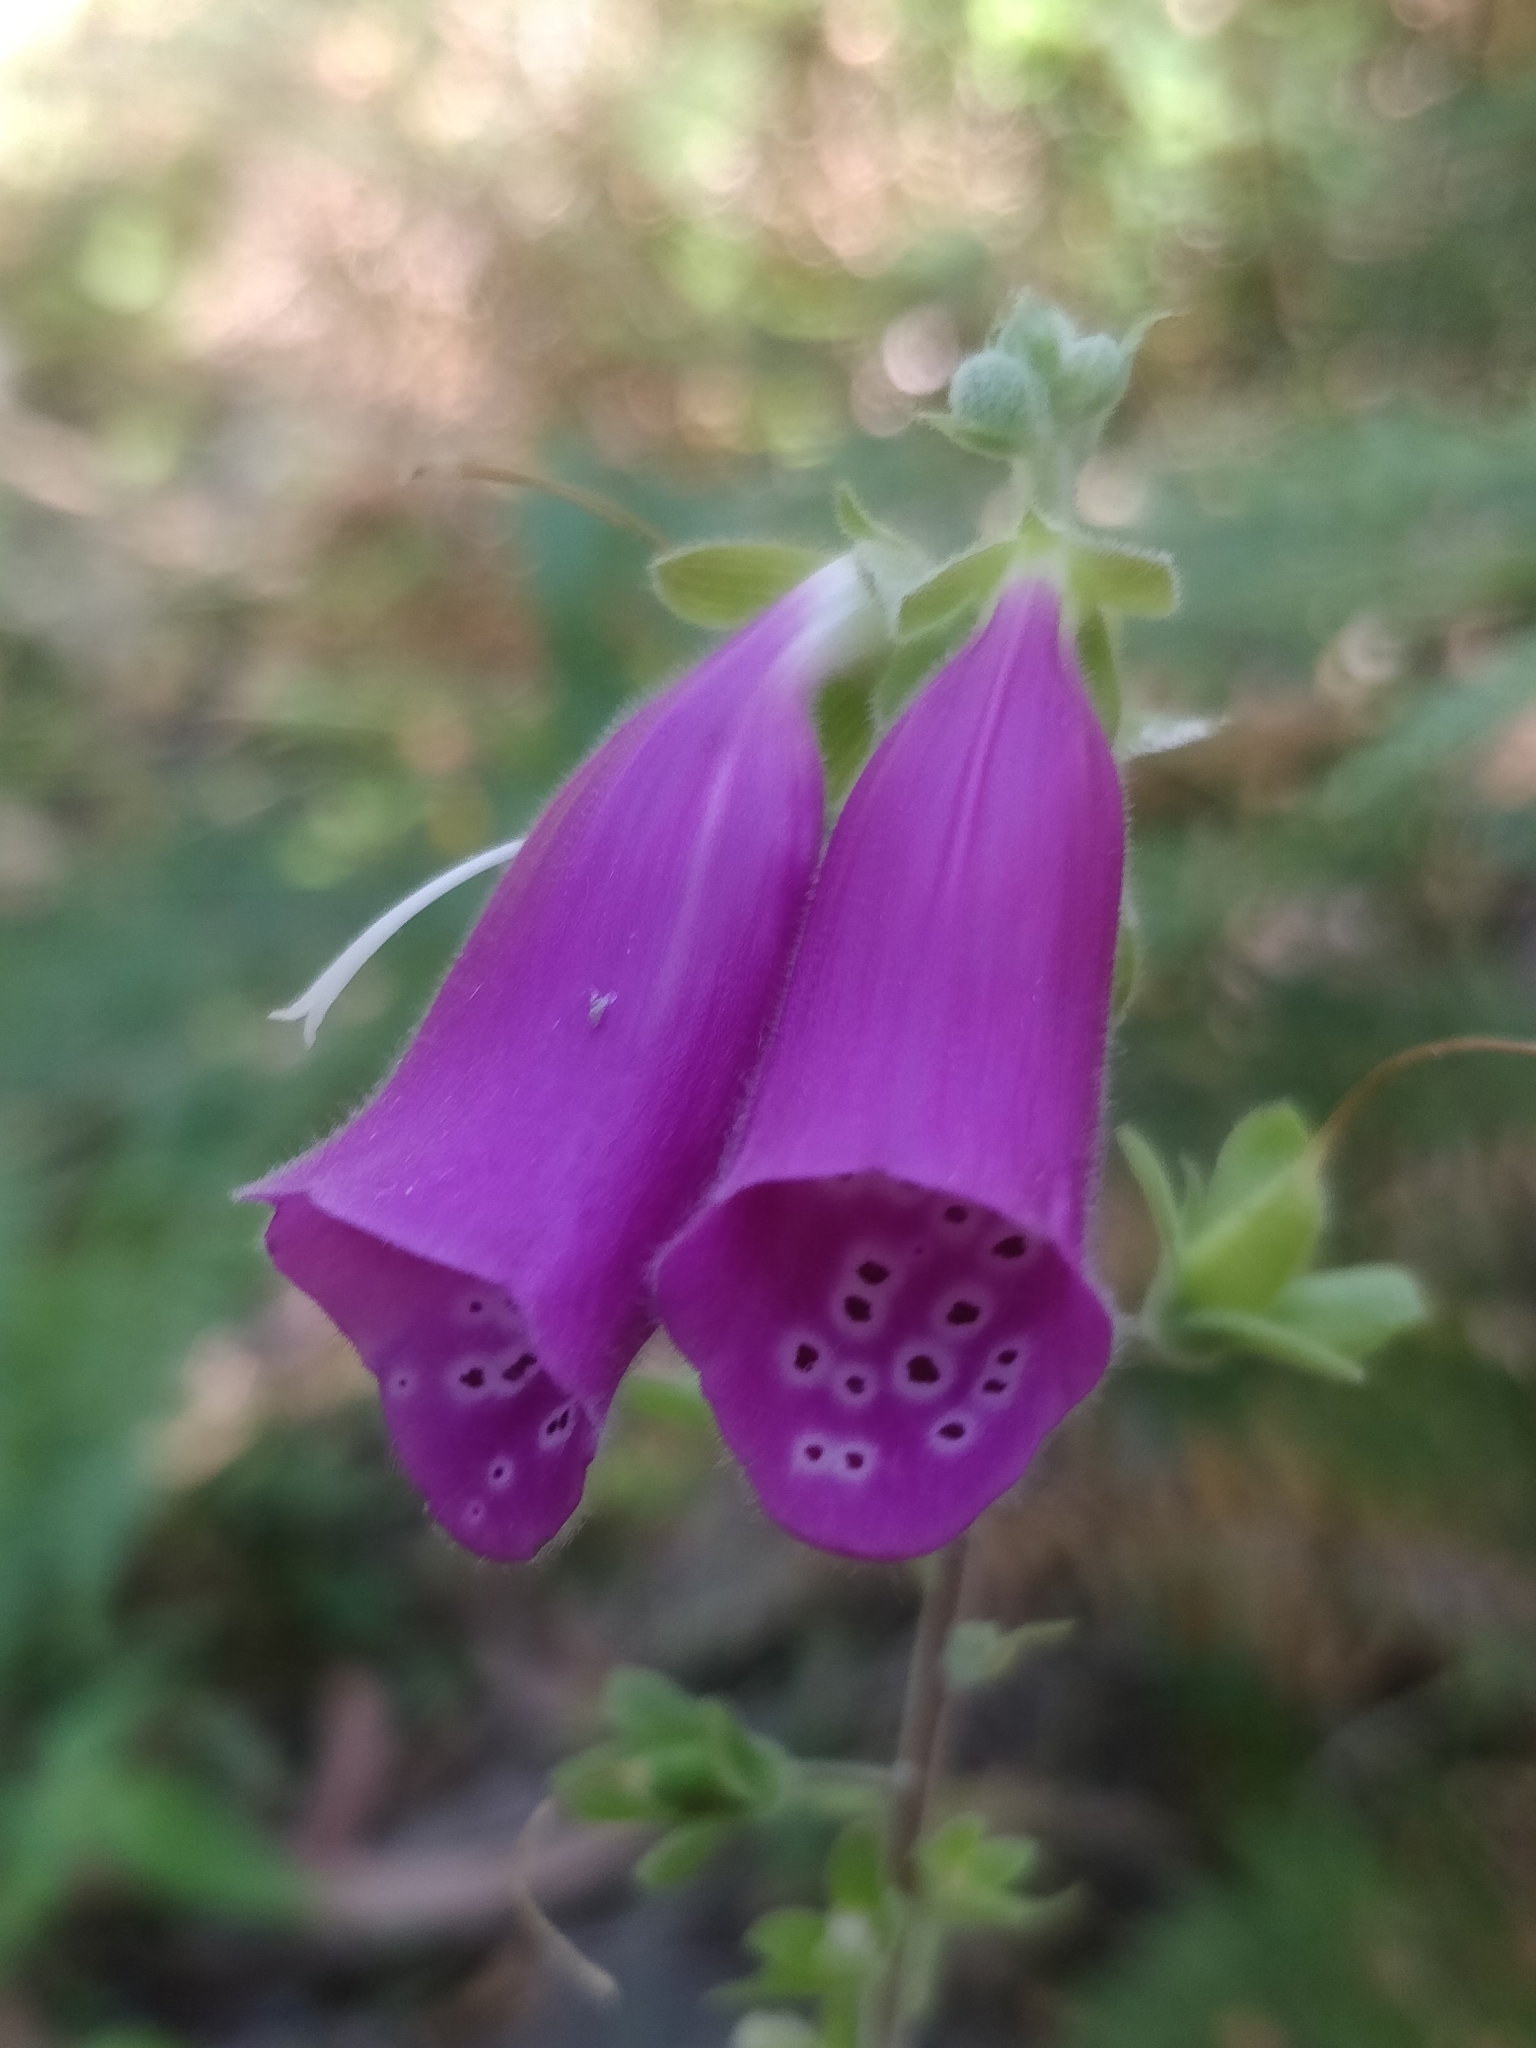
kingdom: Plantae
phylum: Tracheophyta
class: Magnoliopsida
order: Lamiales
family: Plantaginaceae
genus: Digitalis
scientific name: Digitalis purpurea
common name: Foxglove
